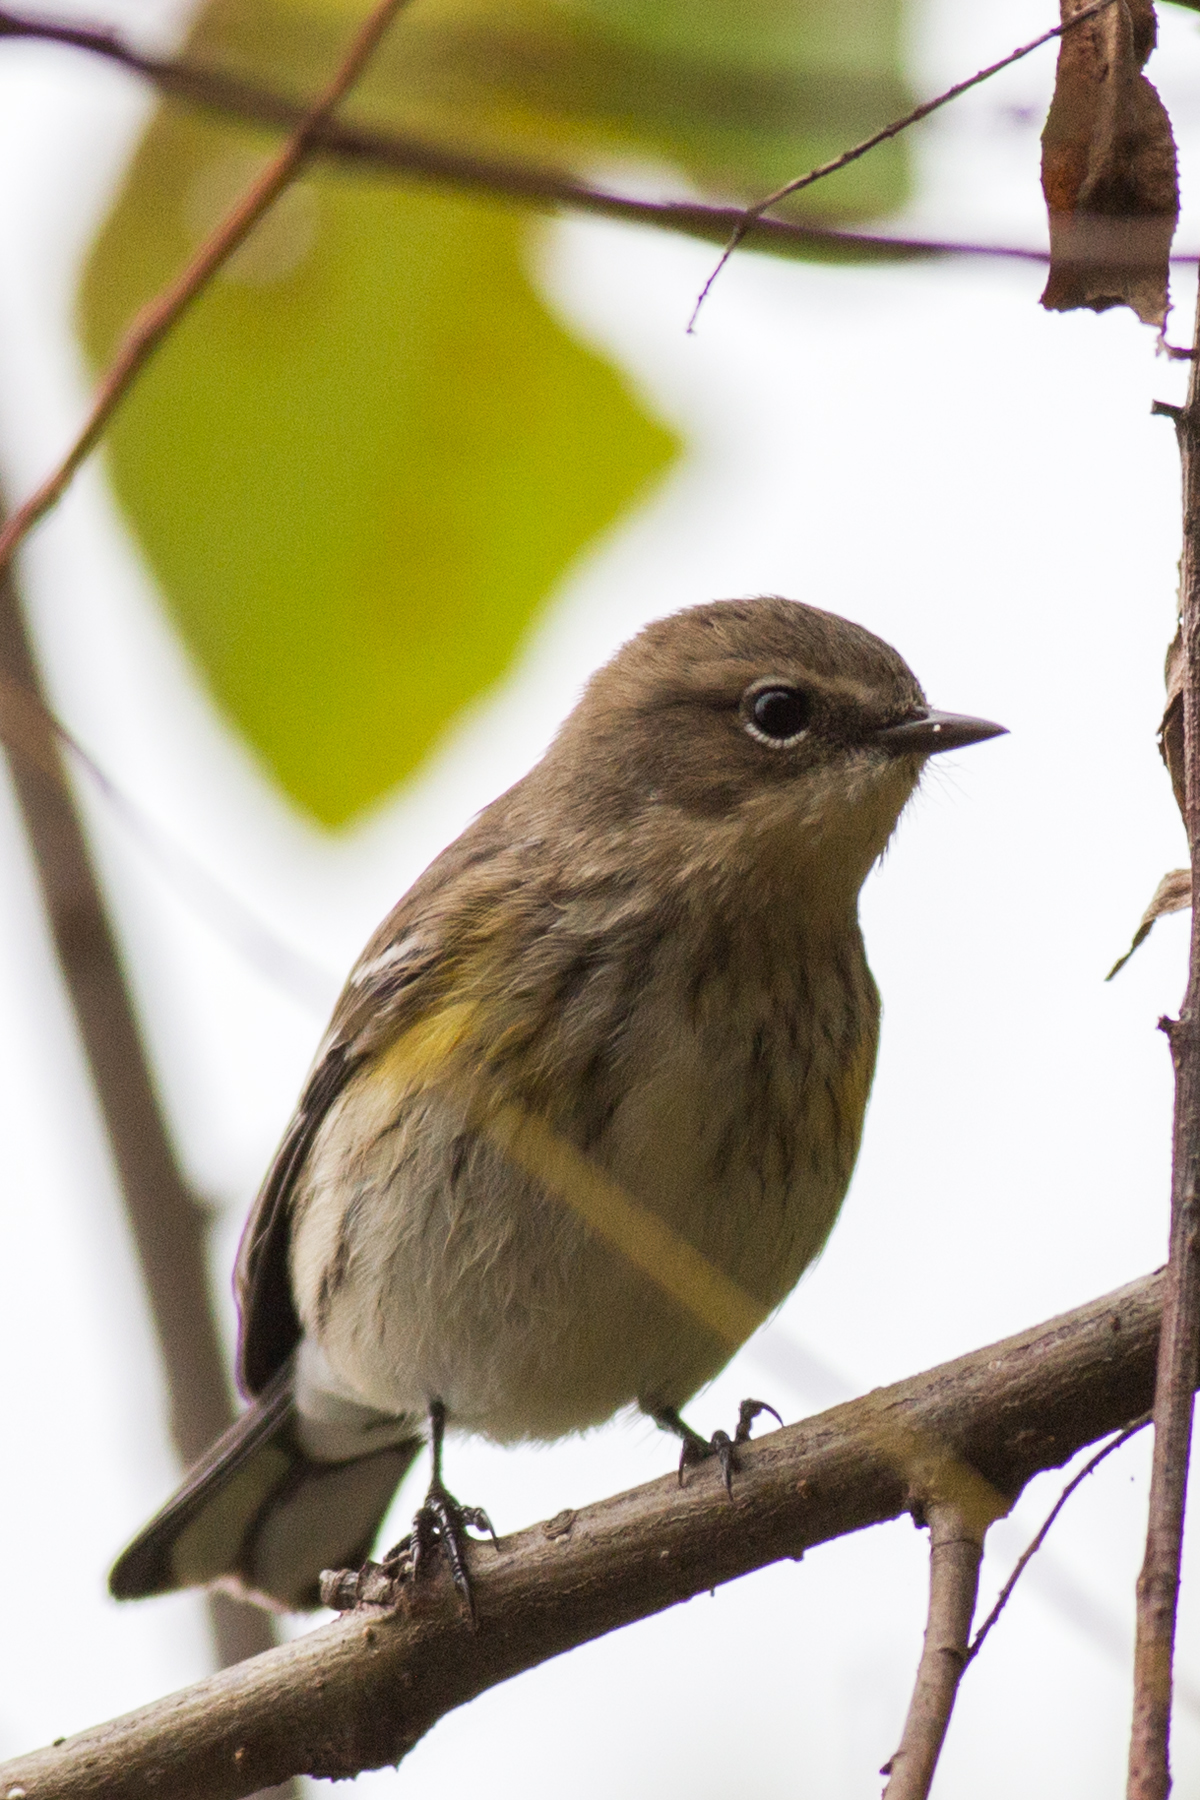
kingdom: Animalia
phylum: Chordata
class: Aves
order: Passeriformes
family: Parulidae
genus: Setophaga
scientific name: Setophaga coronata
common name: Myrtle warbler
